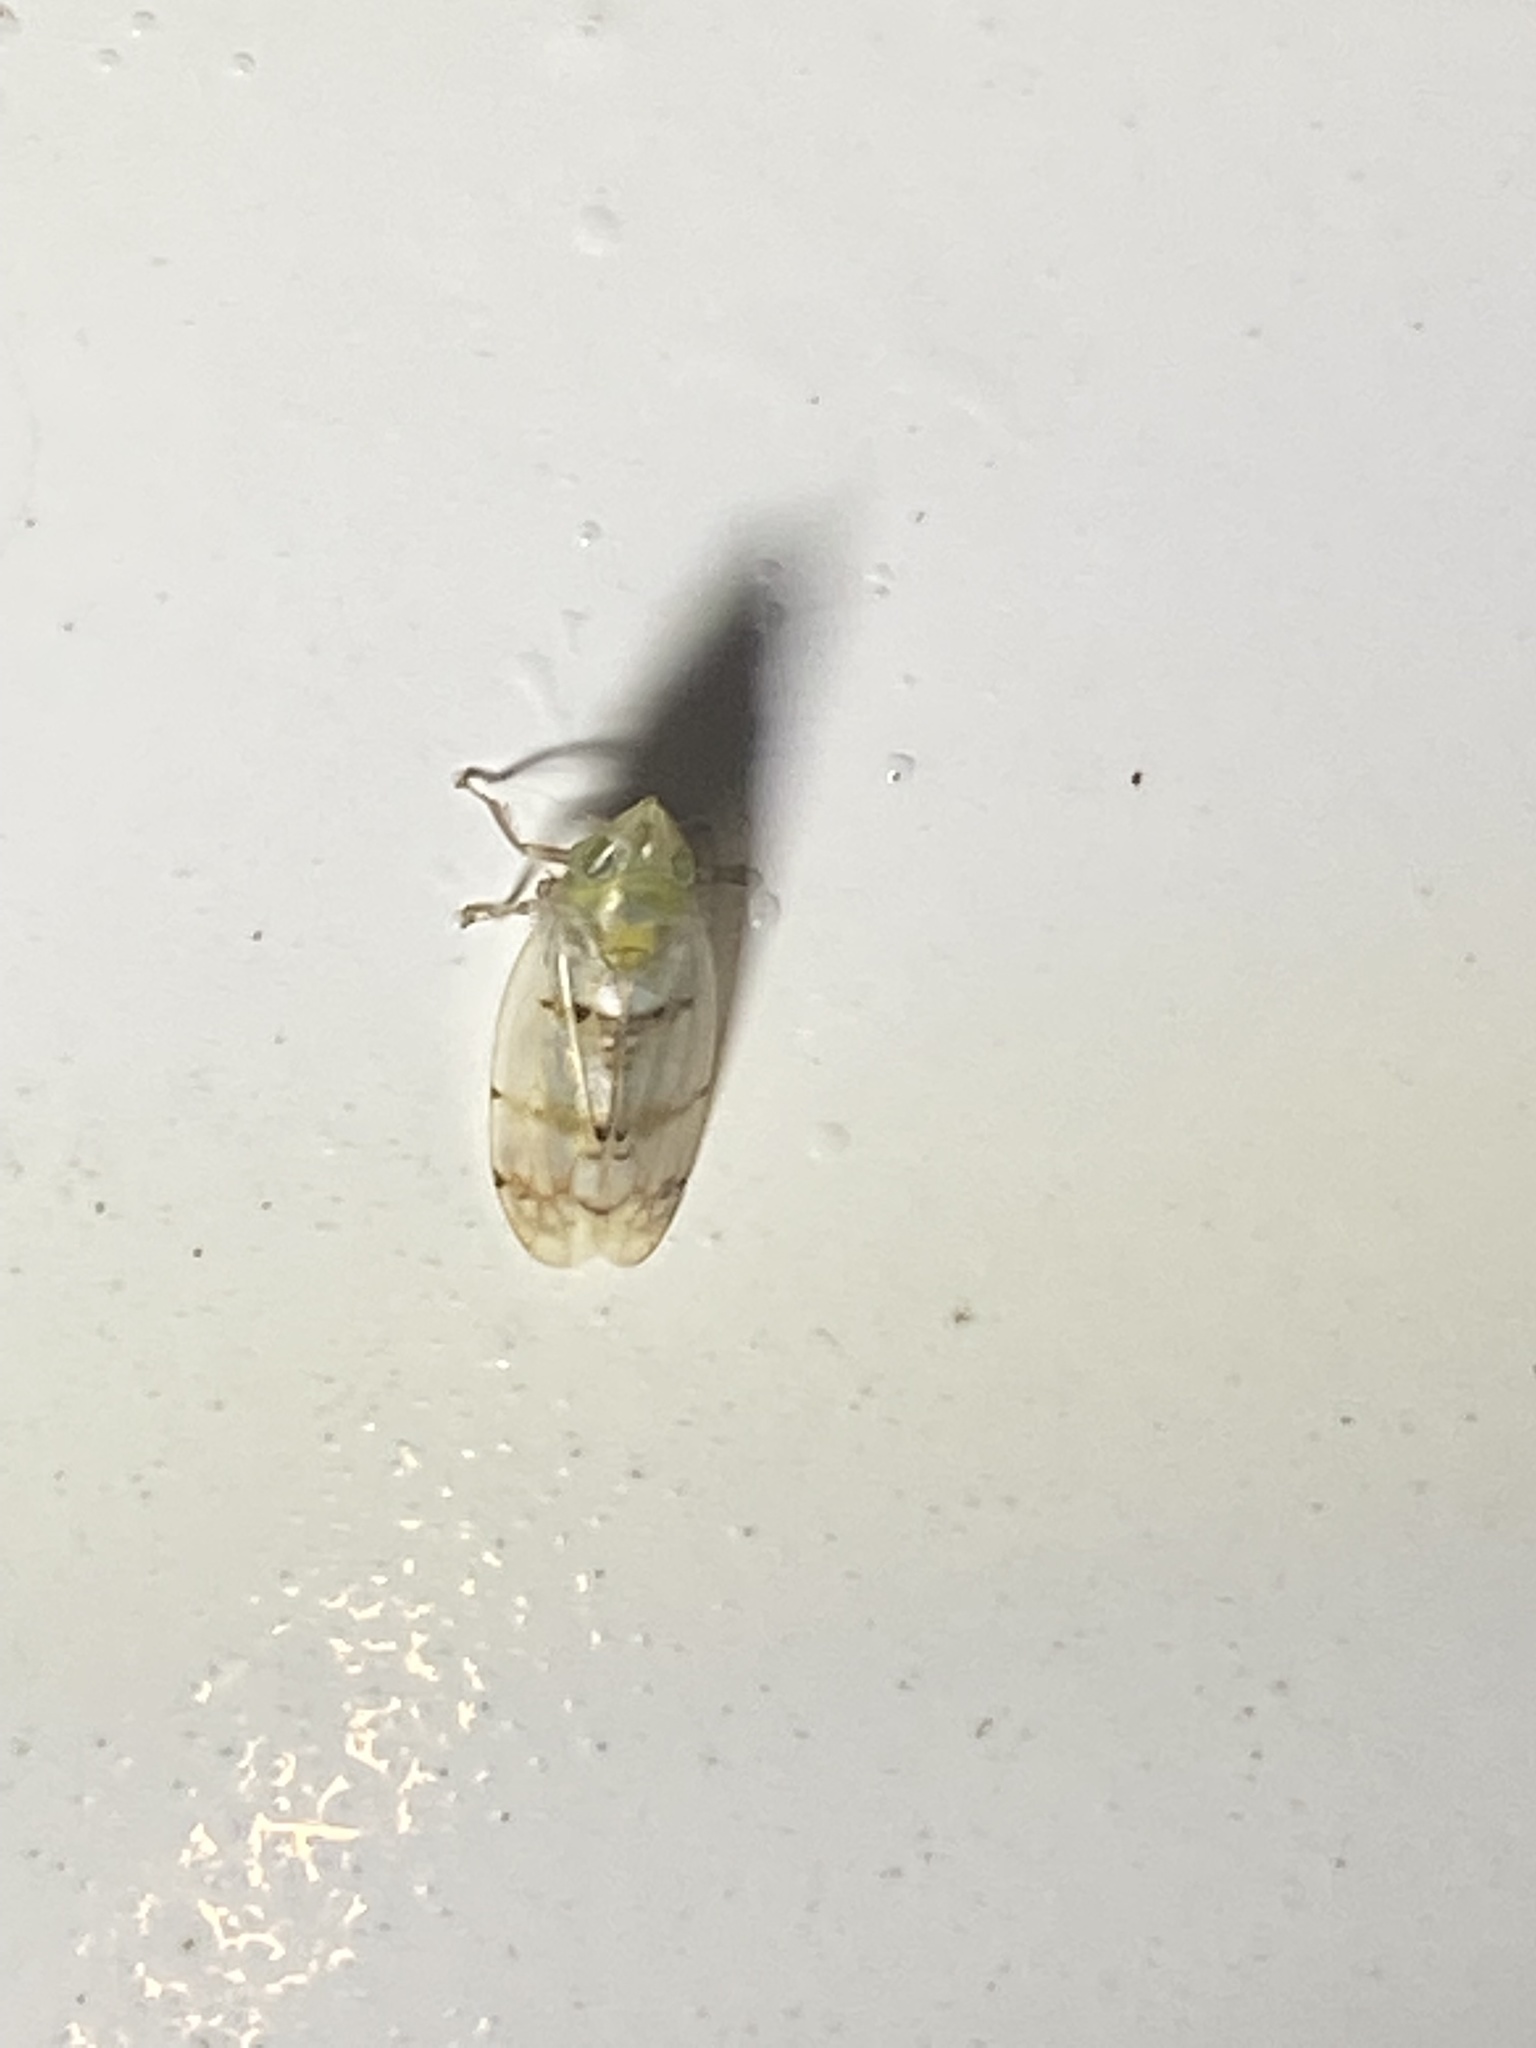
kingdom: Animalia
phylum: Arthropoda
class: Insecta
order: Hemiptera
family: Cicadellidae
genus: Japananus
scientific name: Japananus hyalinus
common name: The japanese maple leafhopper
